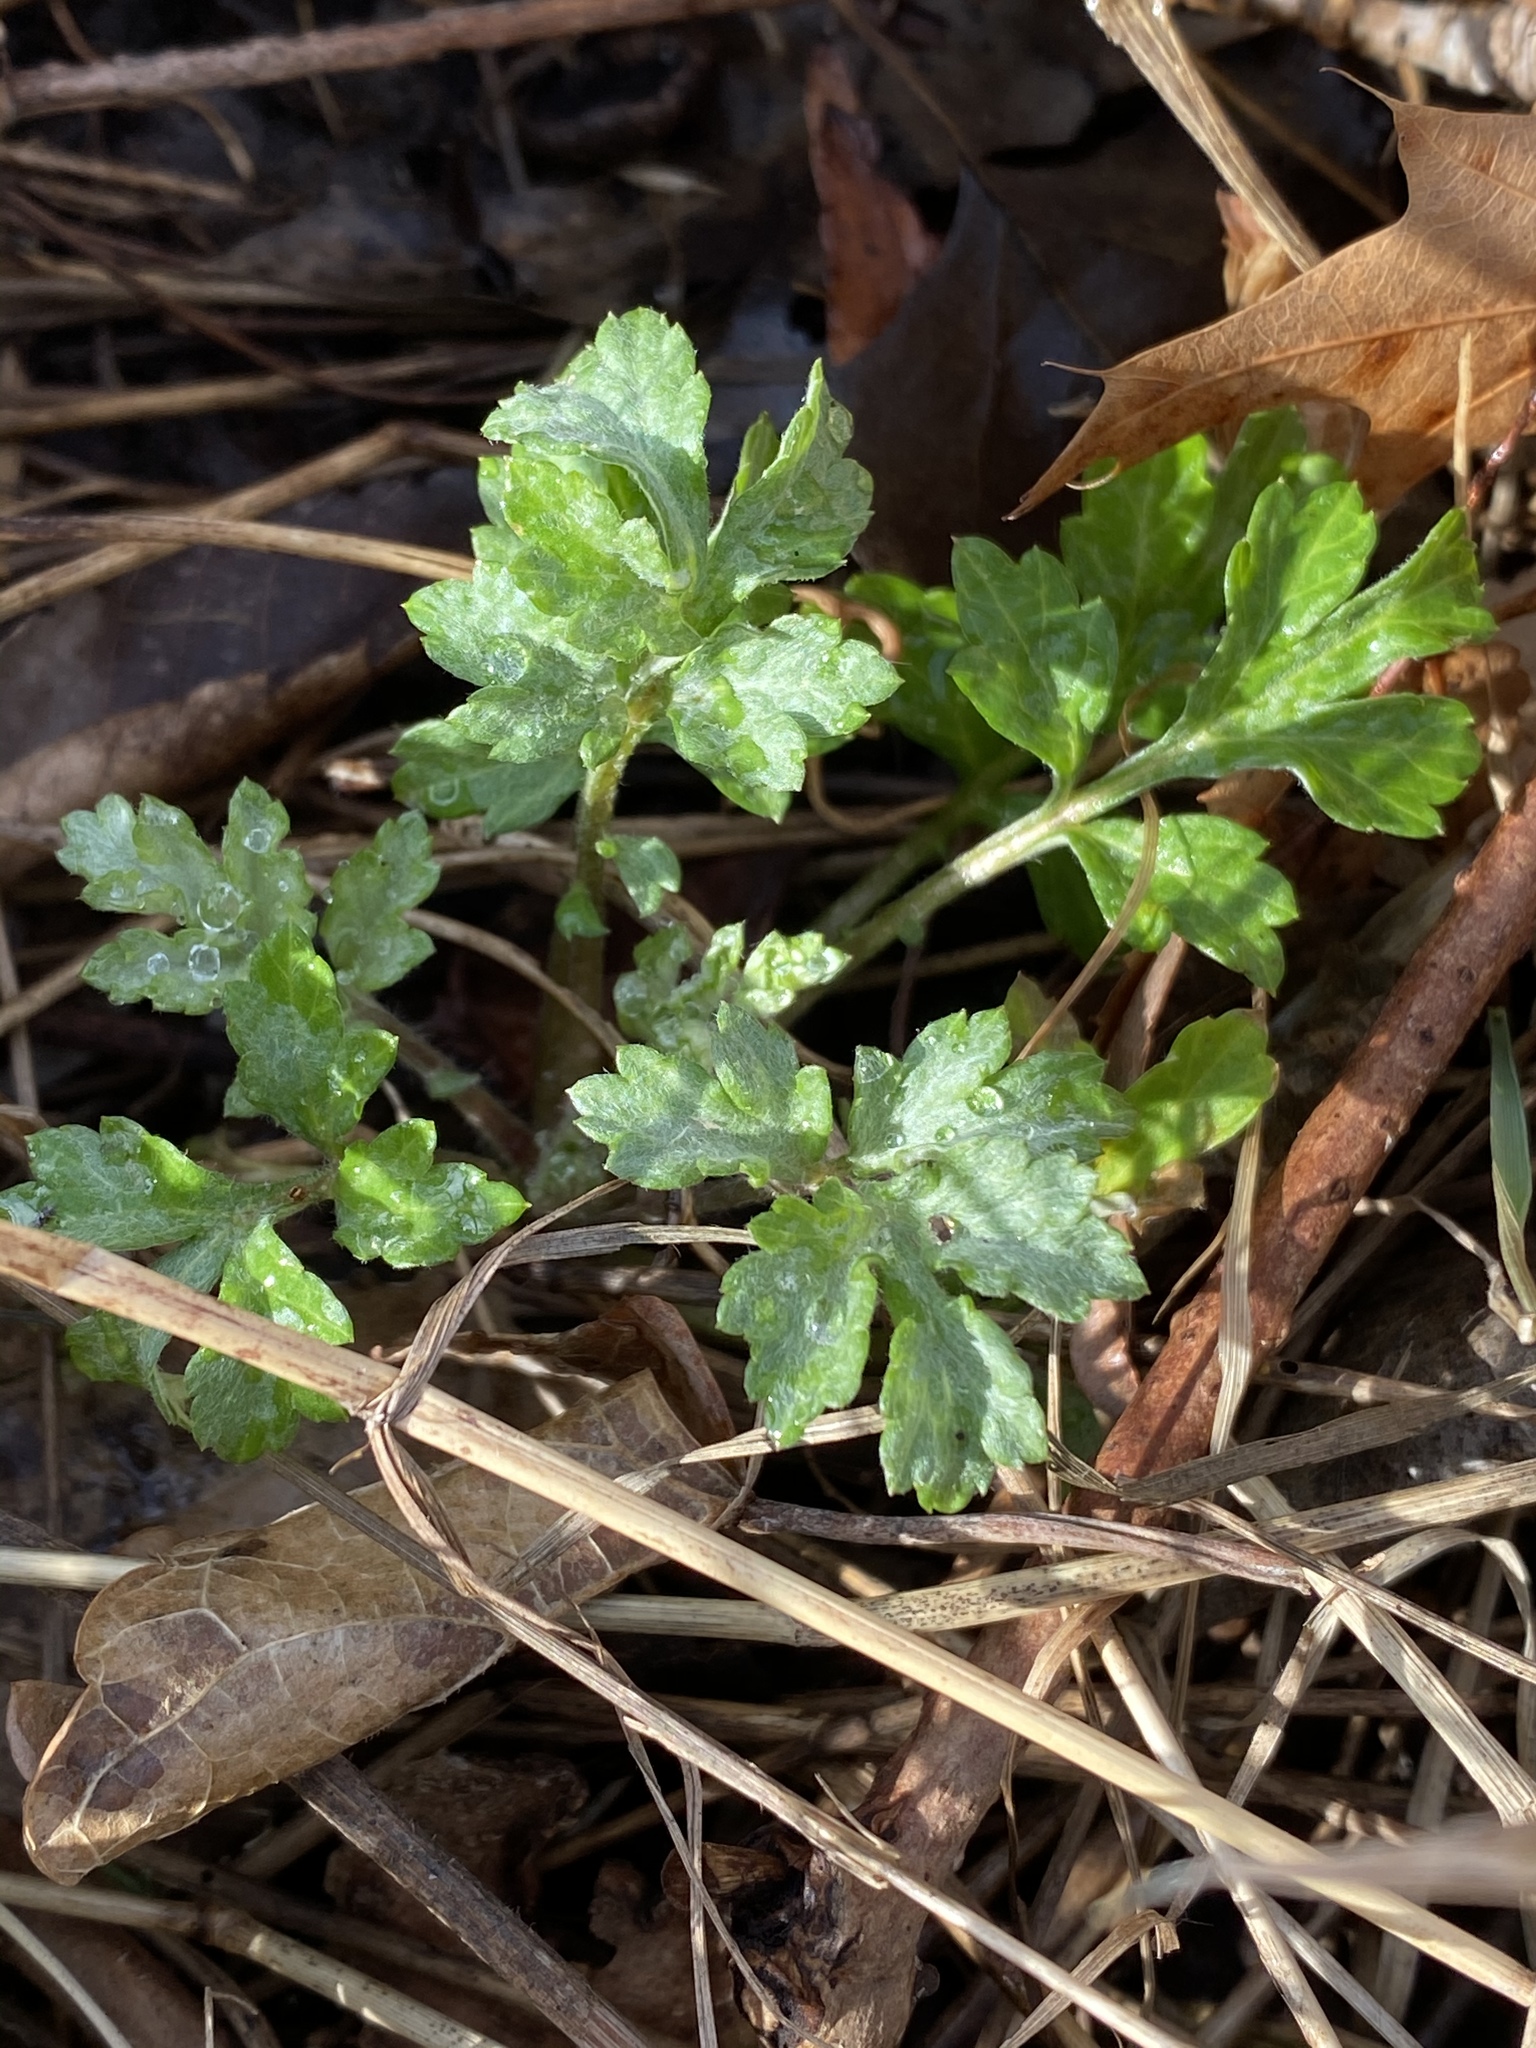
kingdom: Plantae
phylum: Tracheophyta
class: Magnoliopsida
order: Asterales
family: Asteraceae
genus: Artemisia
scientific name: Artemisia vulgaris
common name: Mugwort
